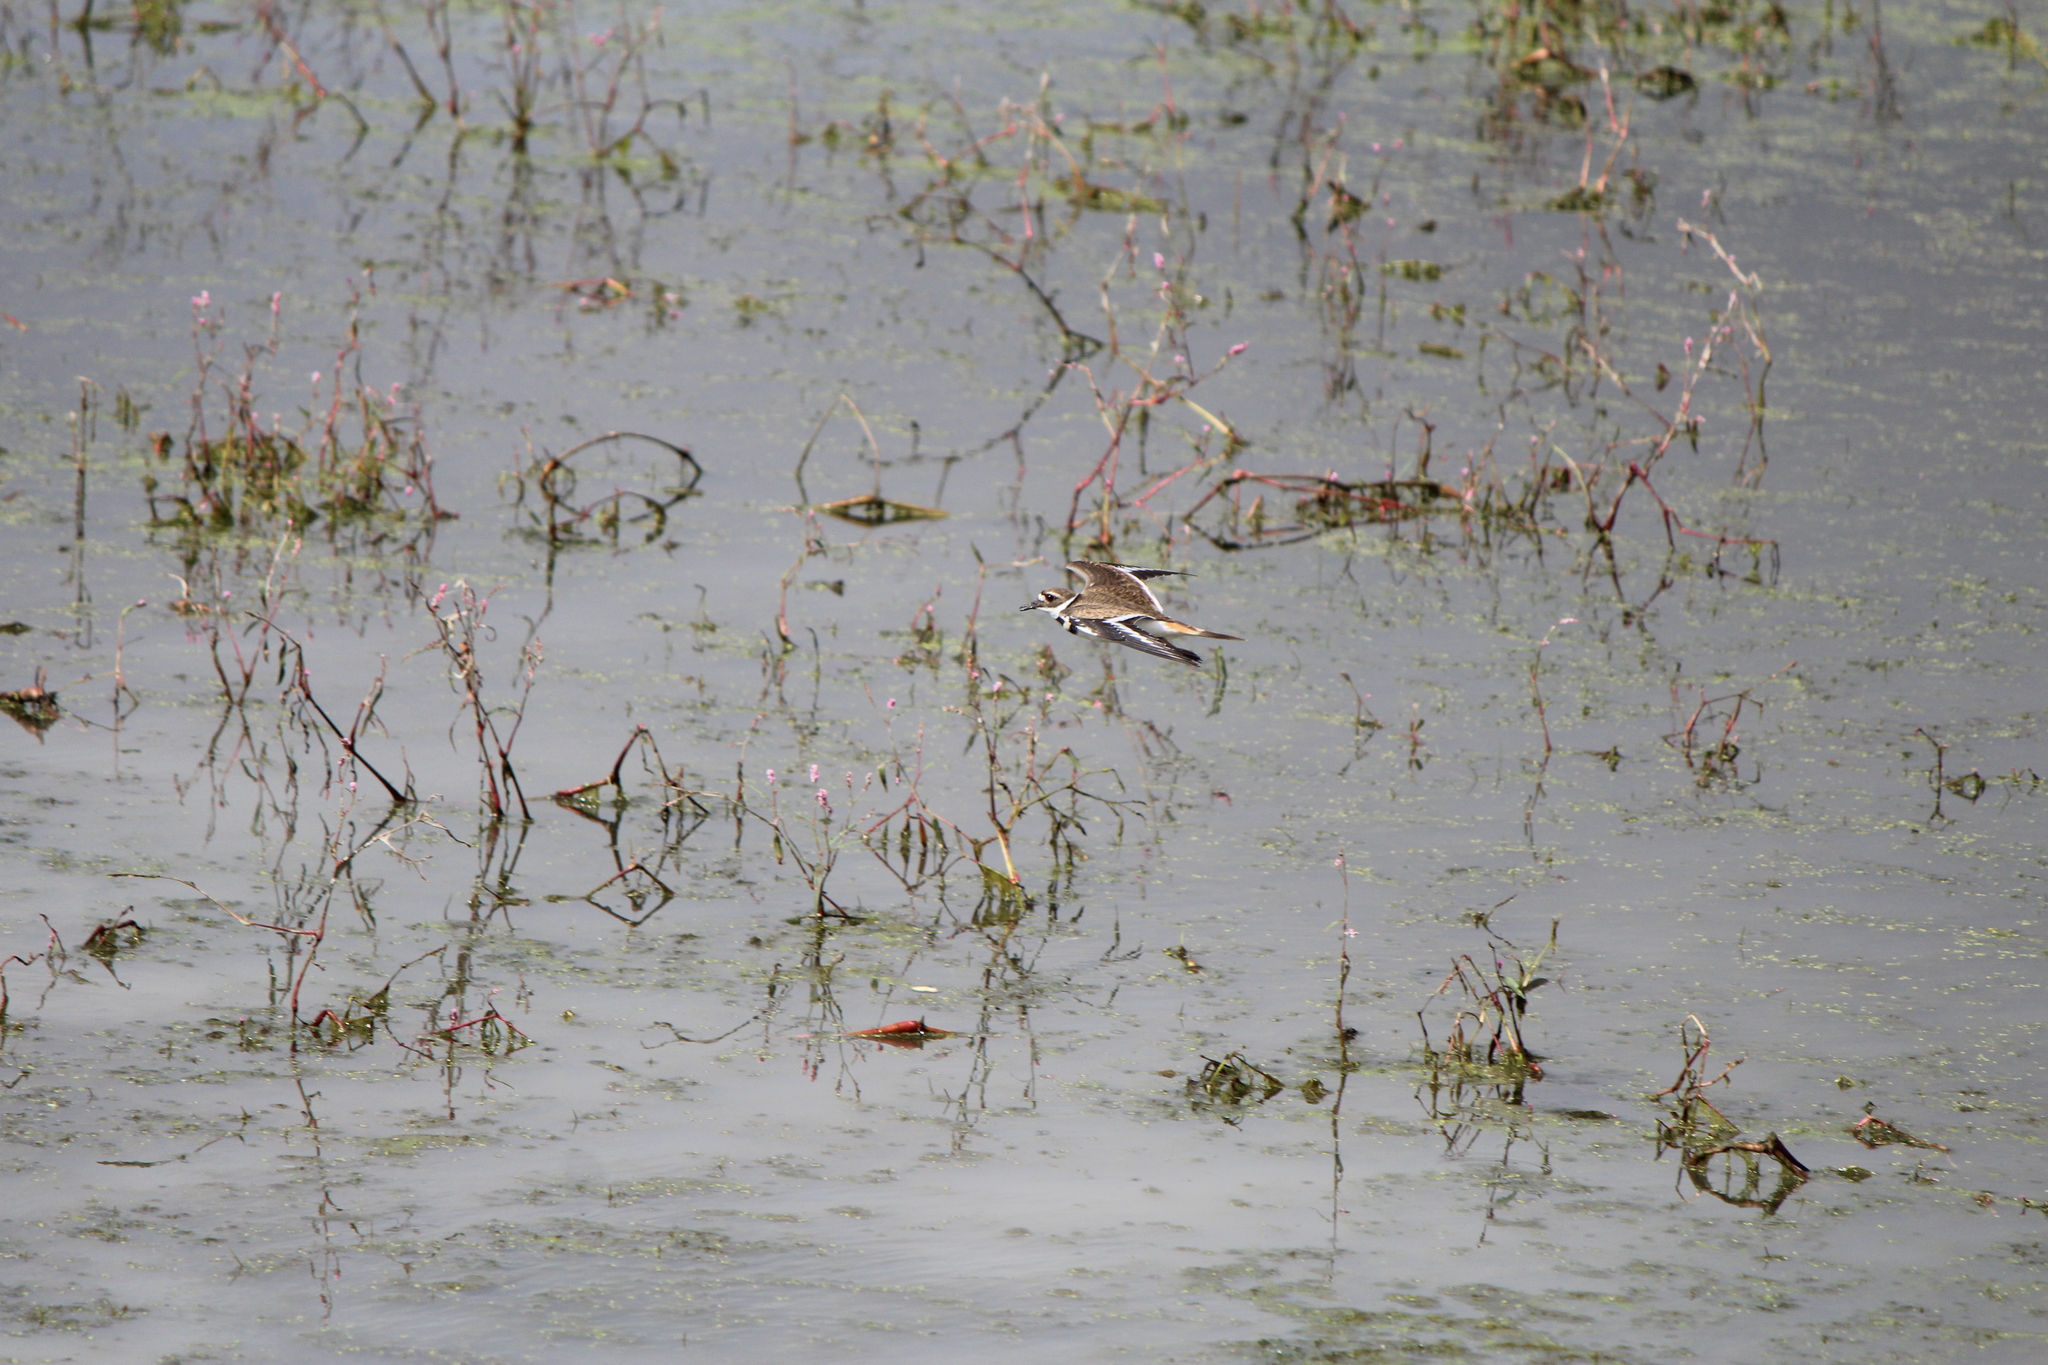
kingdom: Animalia
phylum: Chordata
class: Aves
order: Charadriiformes
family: Charadriidae
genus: Charadrius
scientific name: Charadrius vociferus
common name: Killdeer
